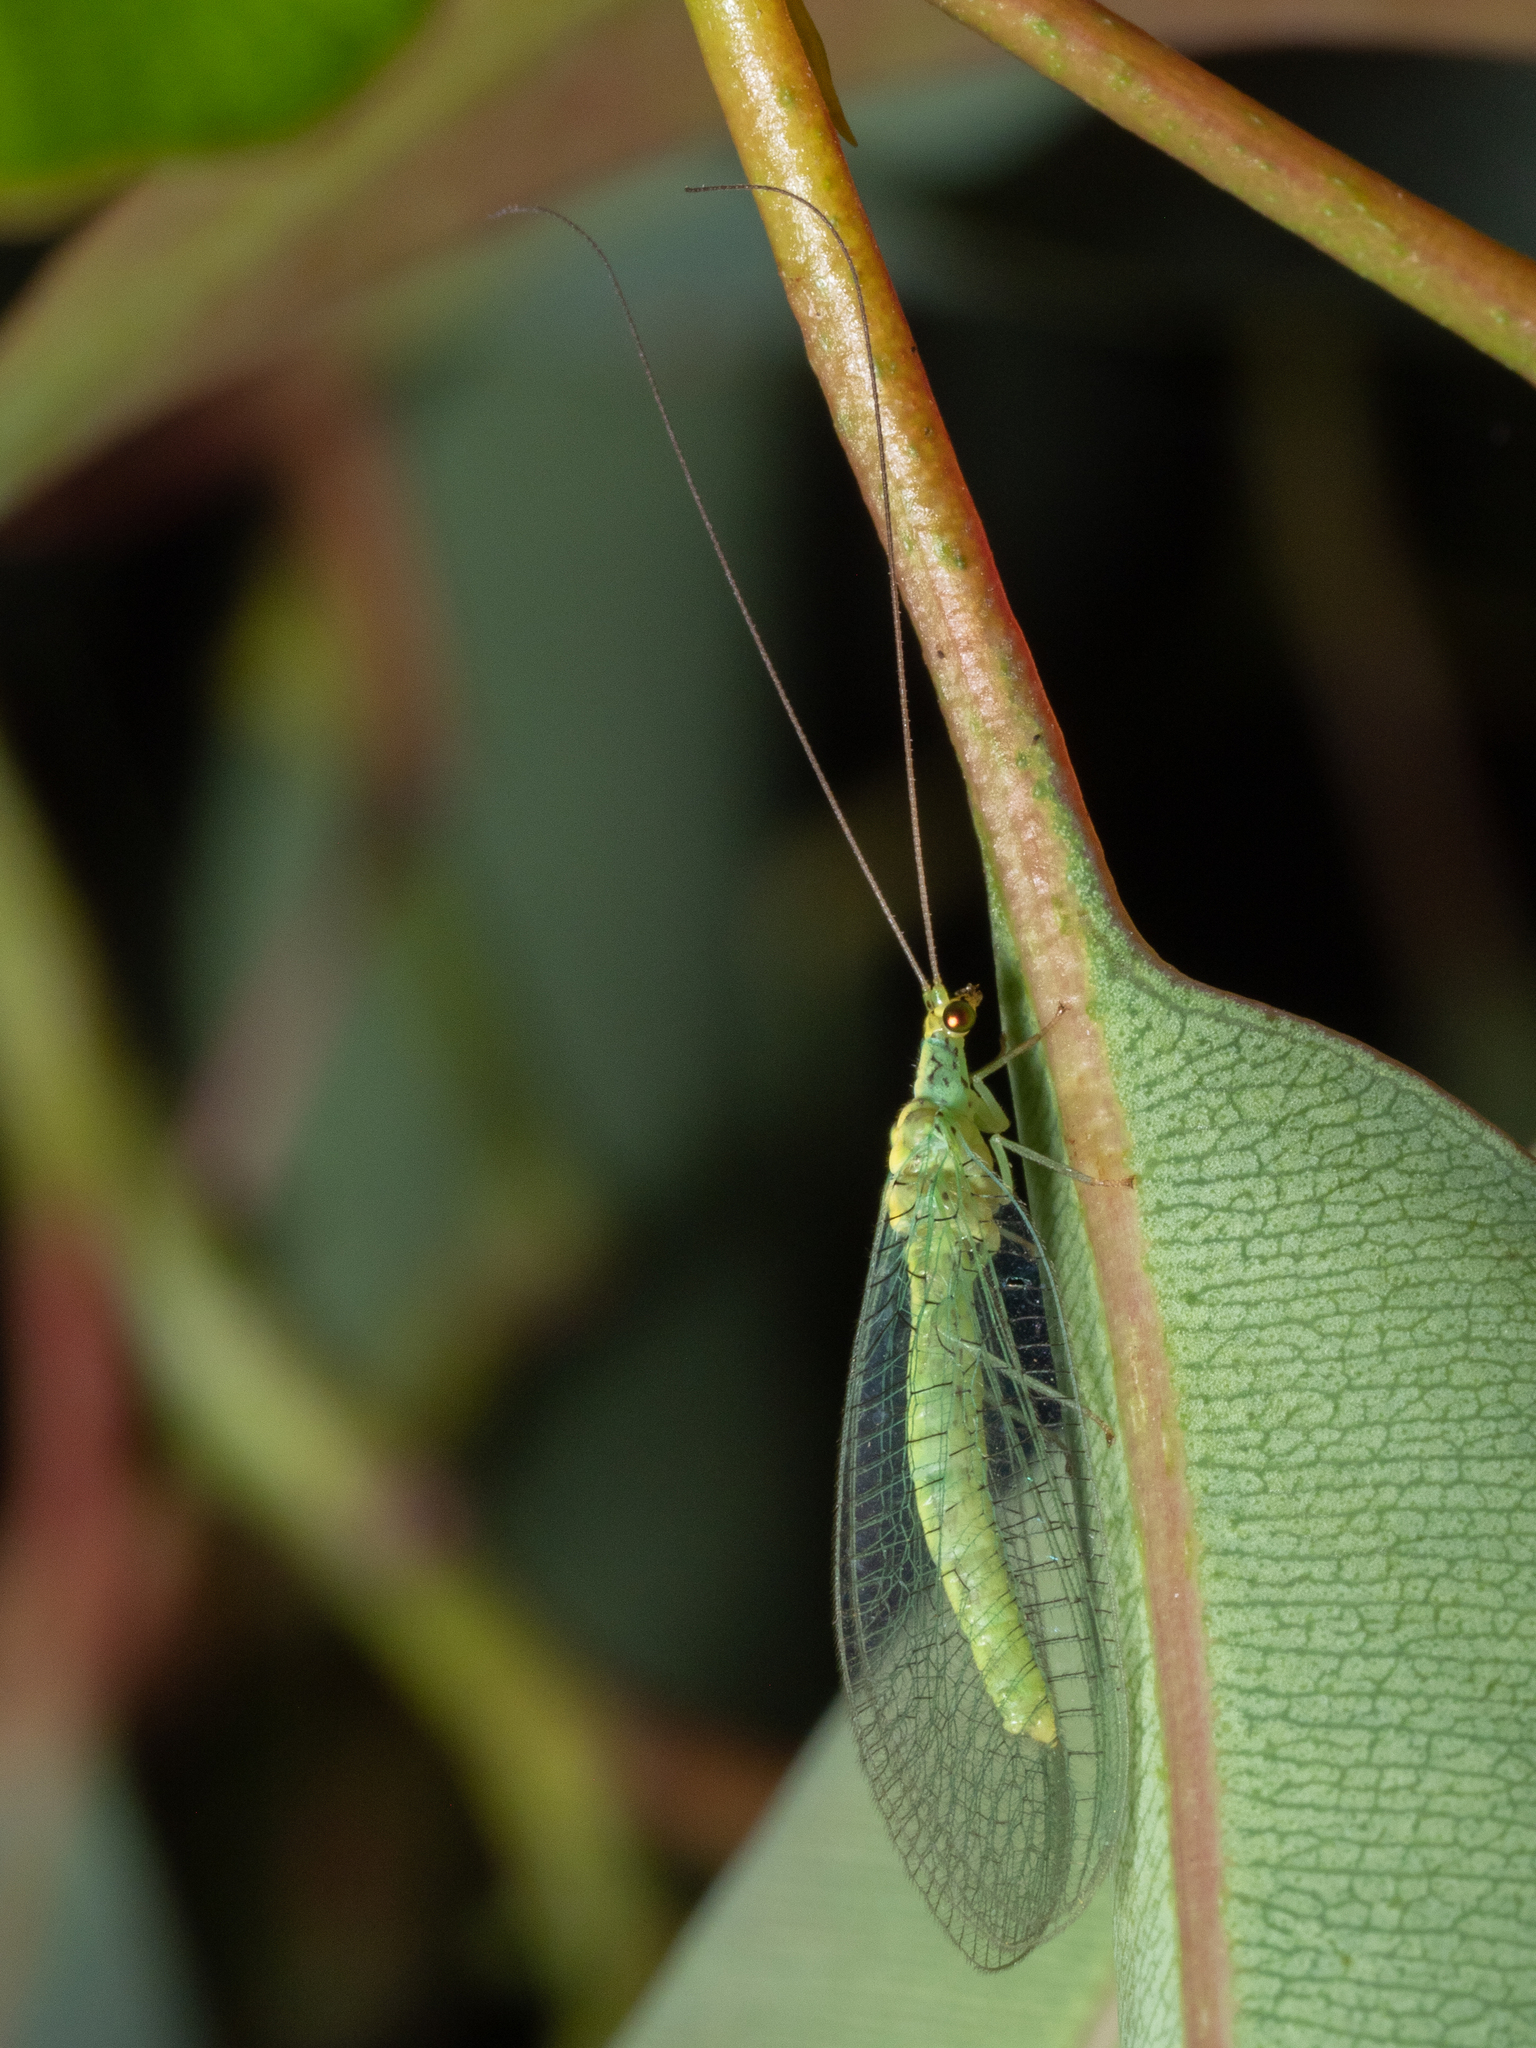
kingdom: Animalia
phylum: Arthropoda
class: Insecta
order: Neuroptera
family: Chrysopidae
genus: Pseudomallada
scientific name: Pseudomallada edwardsi
